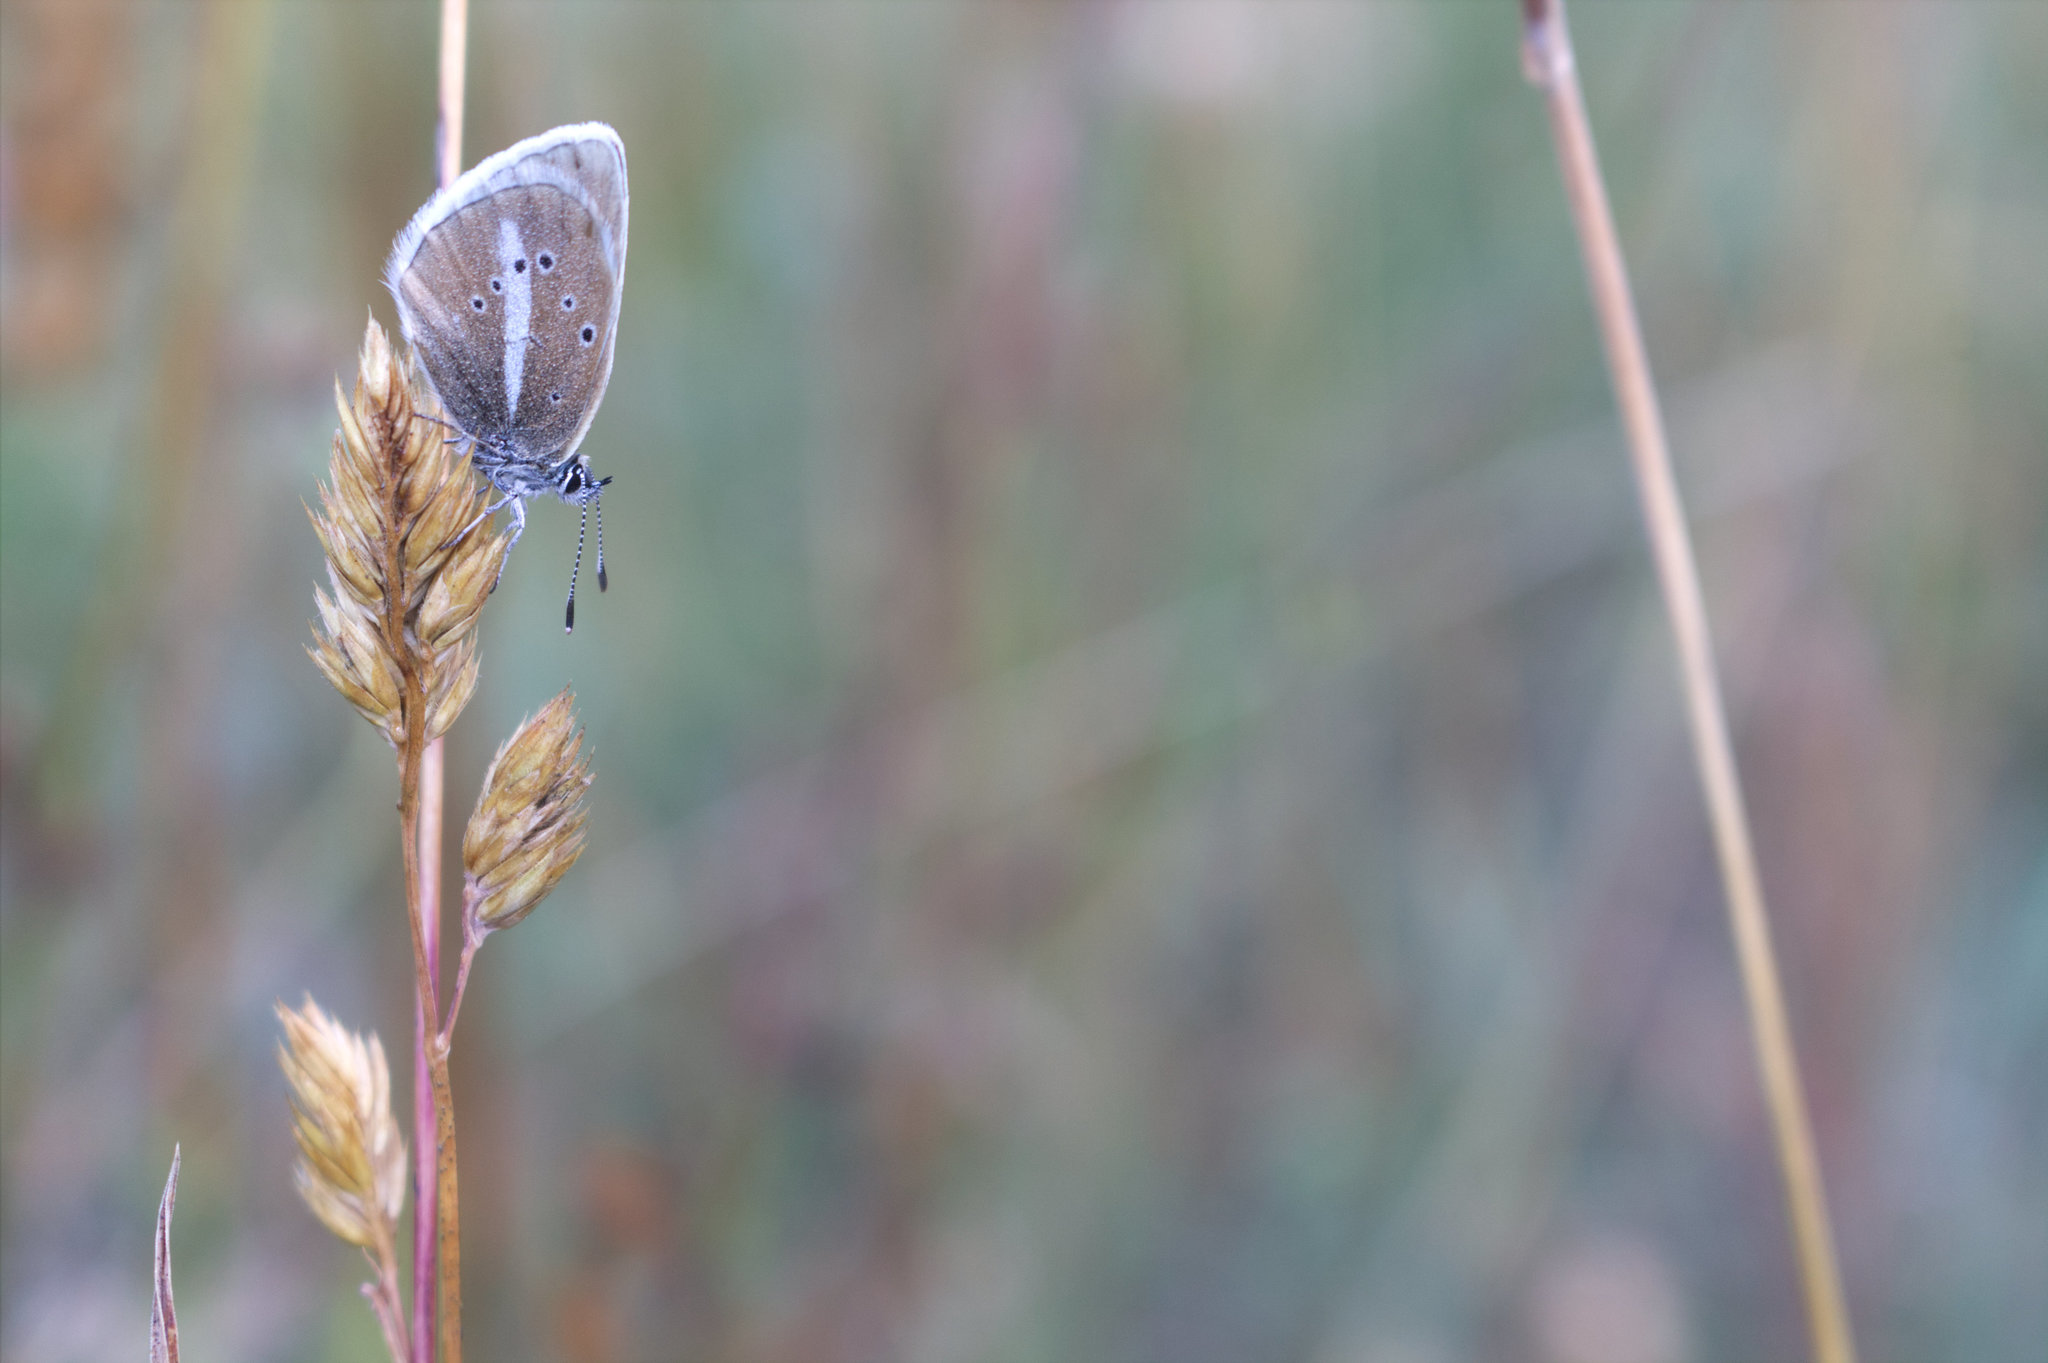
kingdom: Animalia
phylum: Arthropoda
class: Insecta
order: Lepidoptera
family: Lycaenidae
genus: Agrodiaetus
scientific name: Agrodiaetus damon
